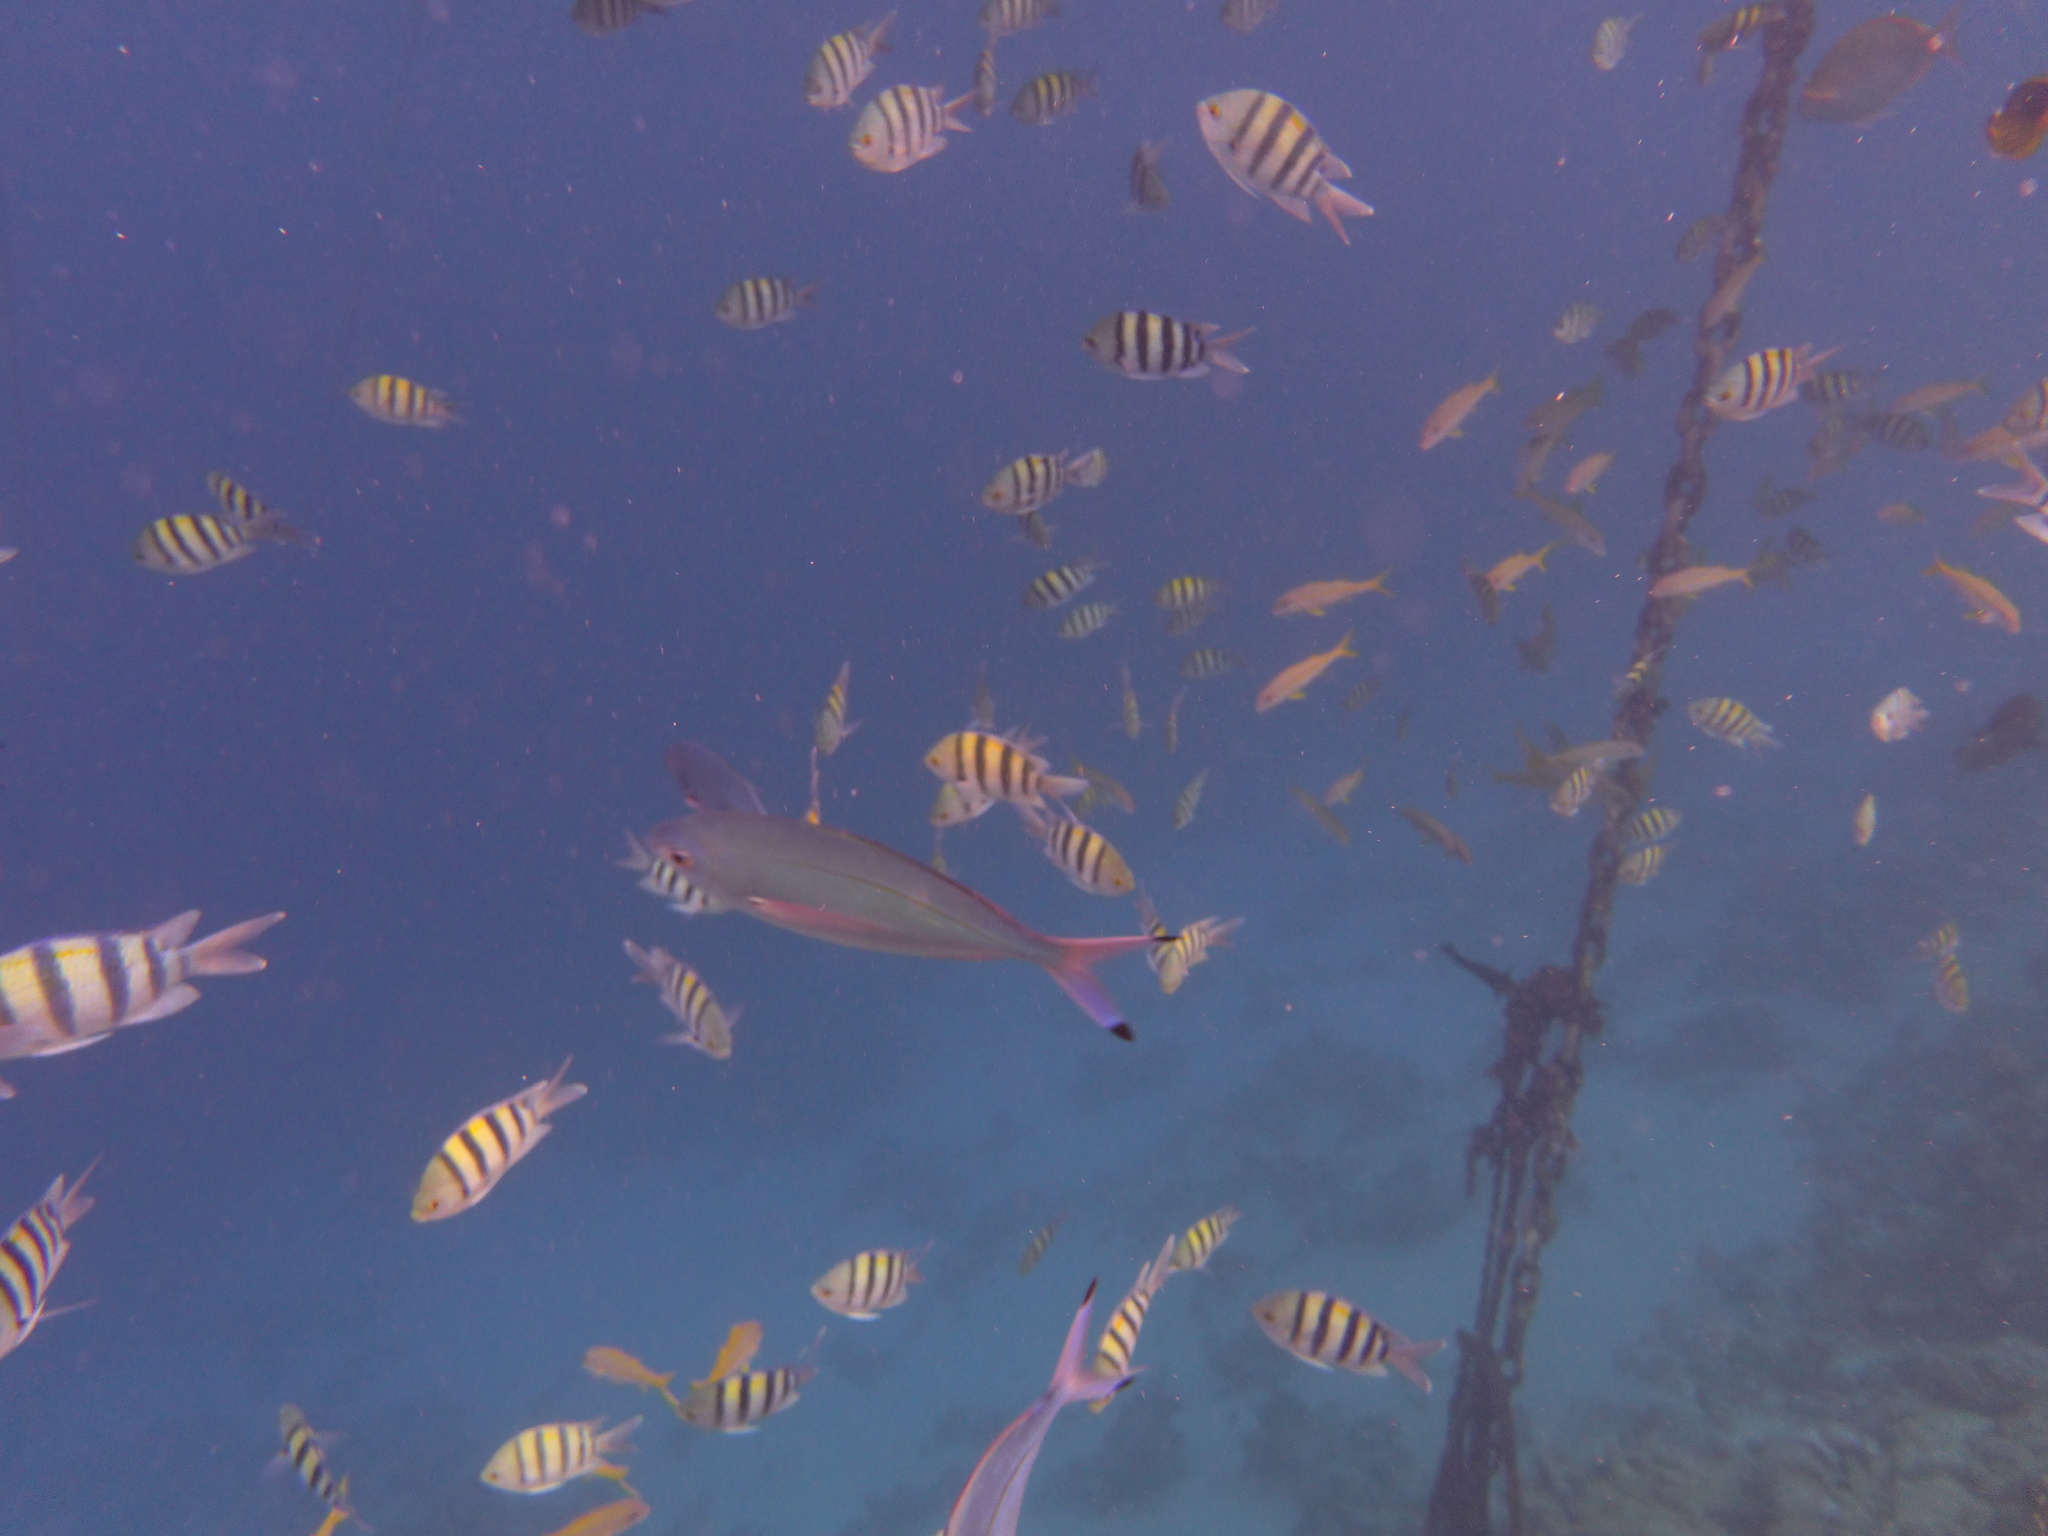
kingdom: Animalia
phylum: Chordata
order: Perciformes
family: Pomacentridae
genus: Abudefduf
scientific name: Abudefduf vaigiensis
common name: Indo-pacific sergeant
